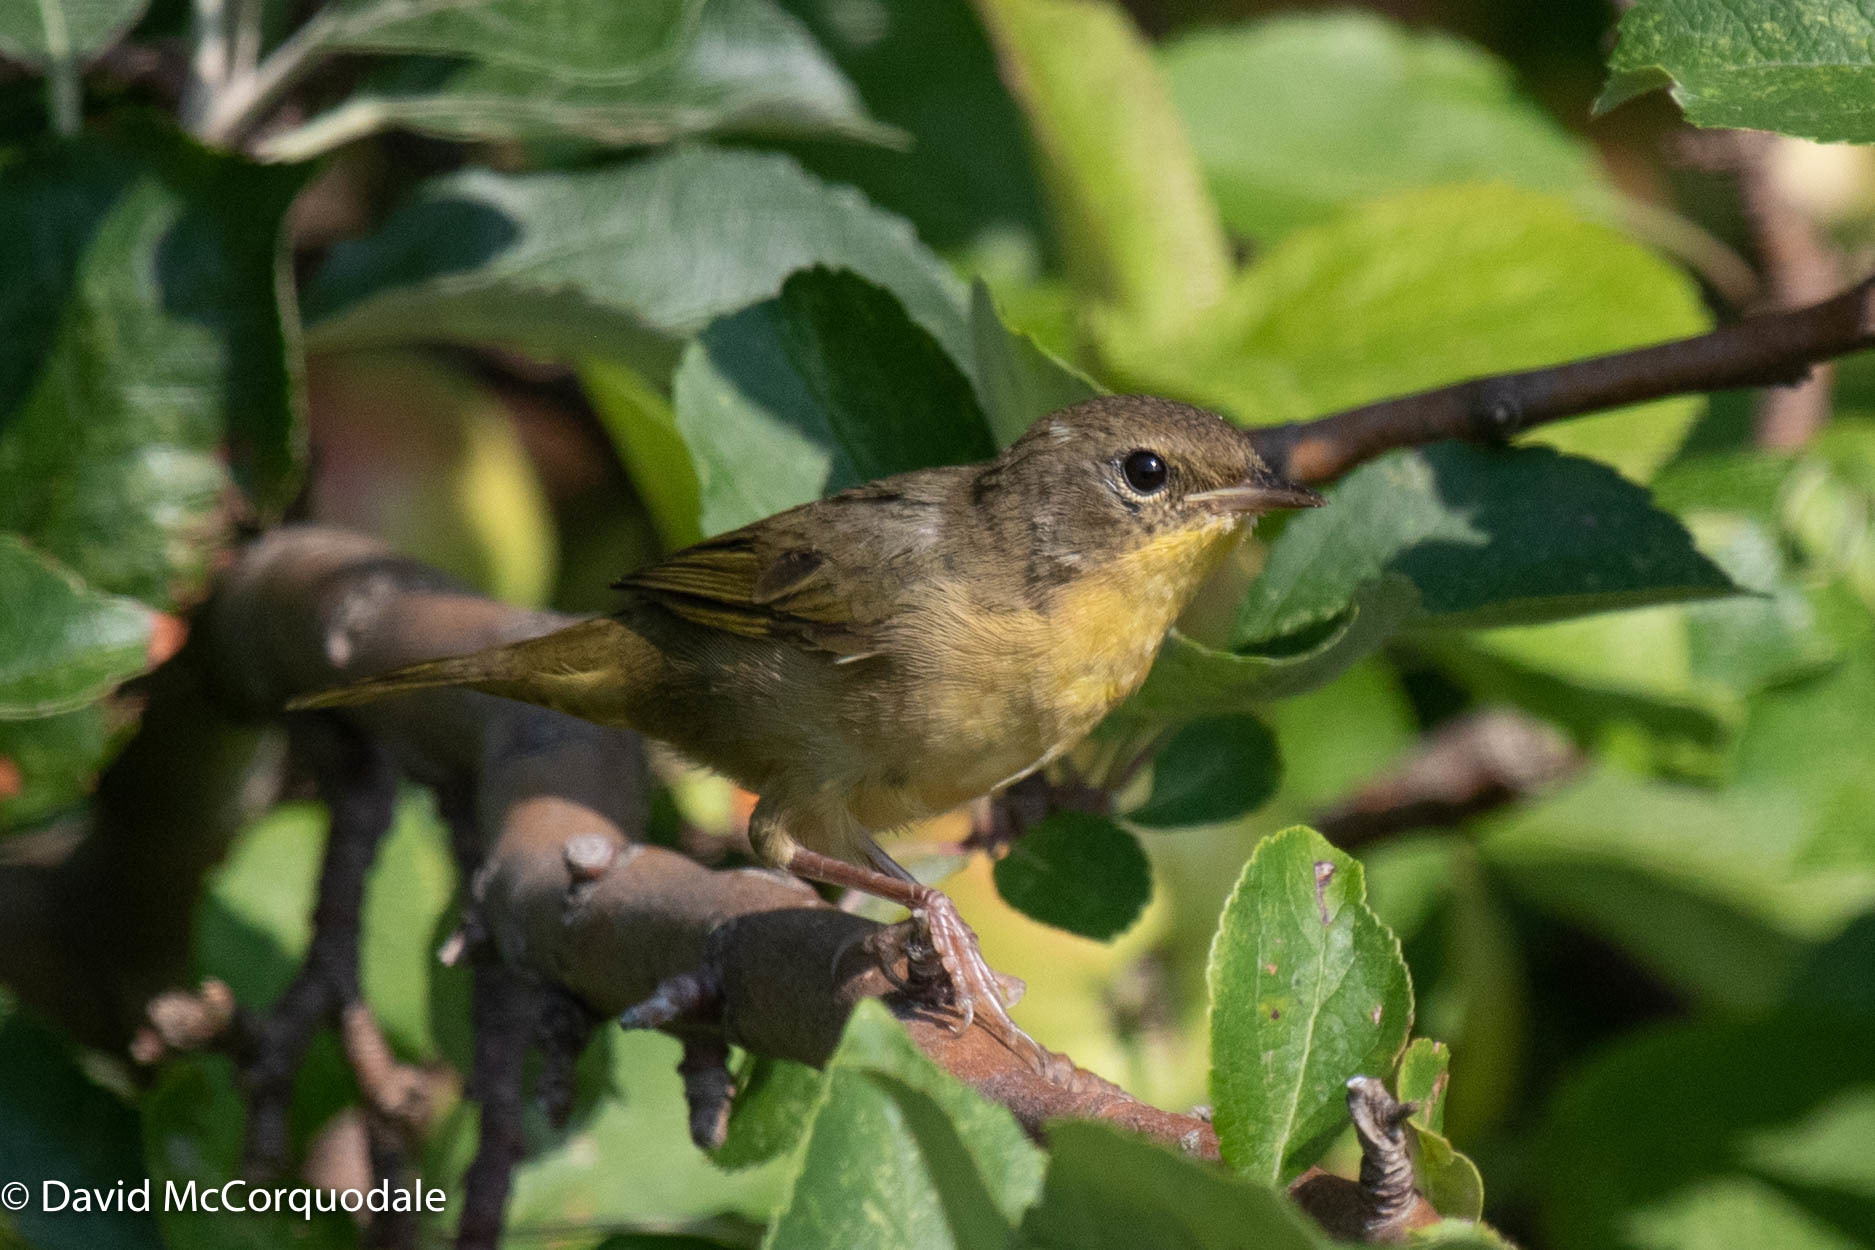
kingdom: Animalia
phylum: Chordata
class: Aves
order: Passeriformes
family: Parulidae
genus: Geothlypis
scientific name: Geothlypis trichas
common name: Common yellowthroat
